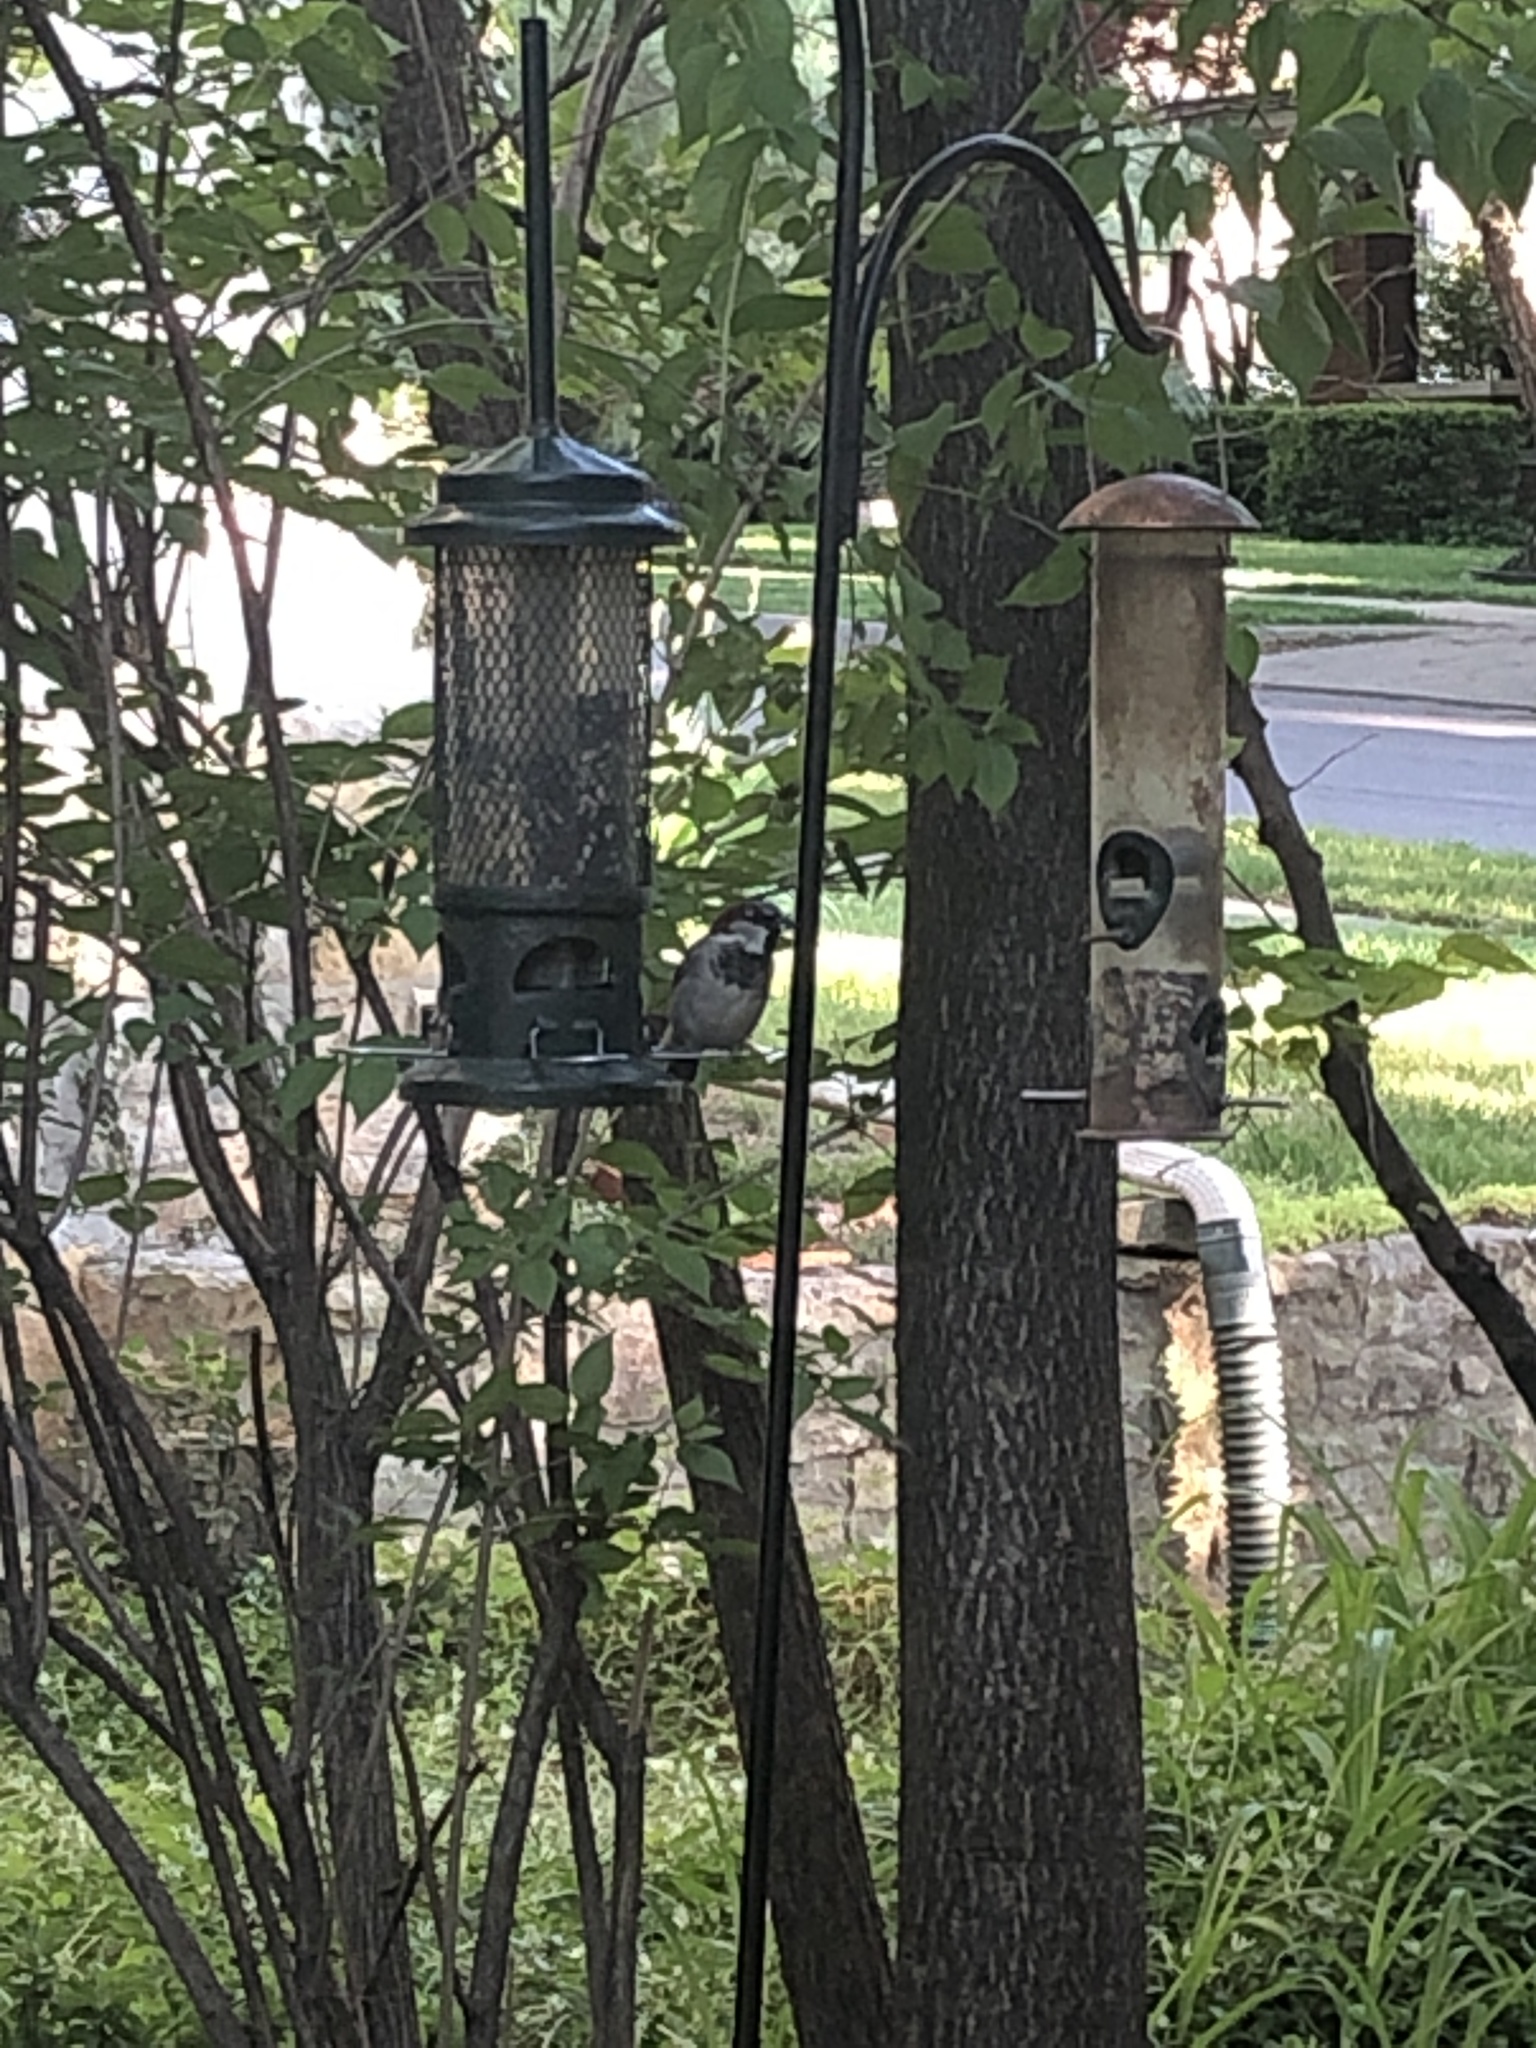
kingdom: Animalia
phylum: Chordata
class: Aves
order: Passeriformes
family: Passeridae
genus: Passer
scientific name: Passer domesticus
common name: House sparrow
